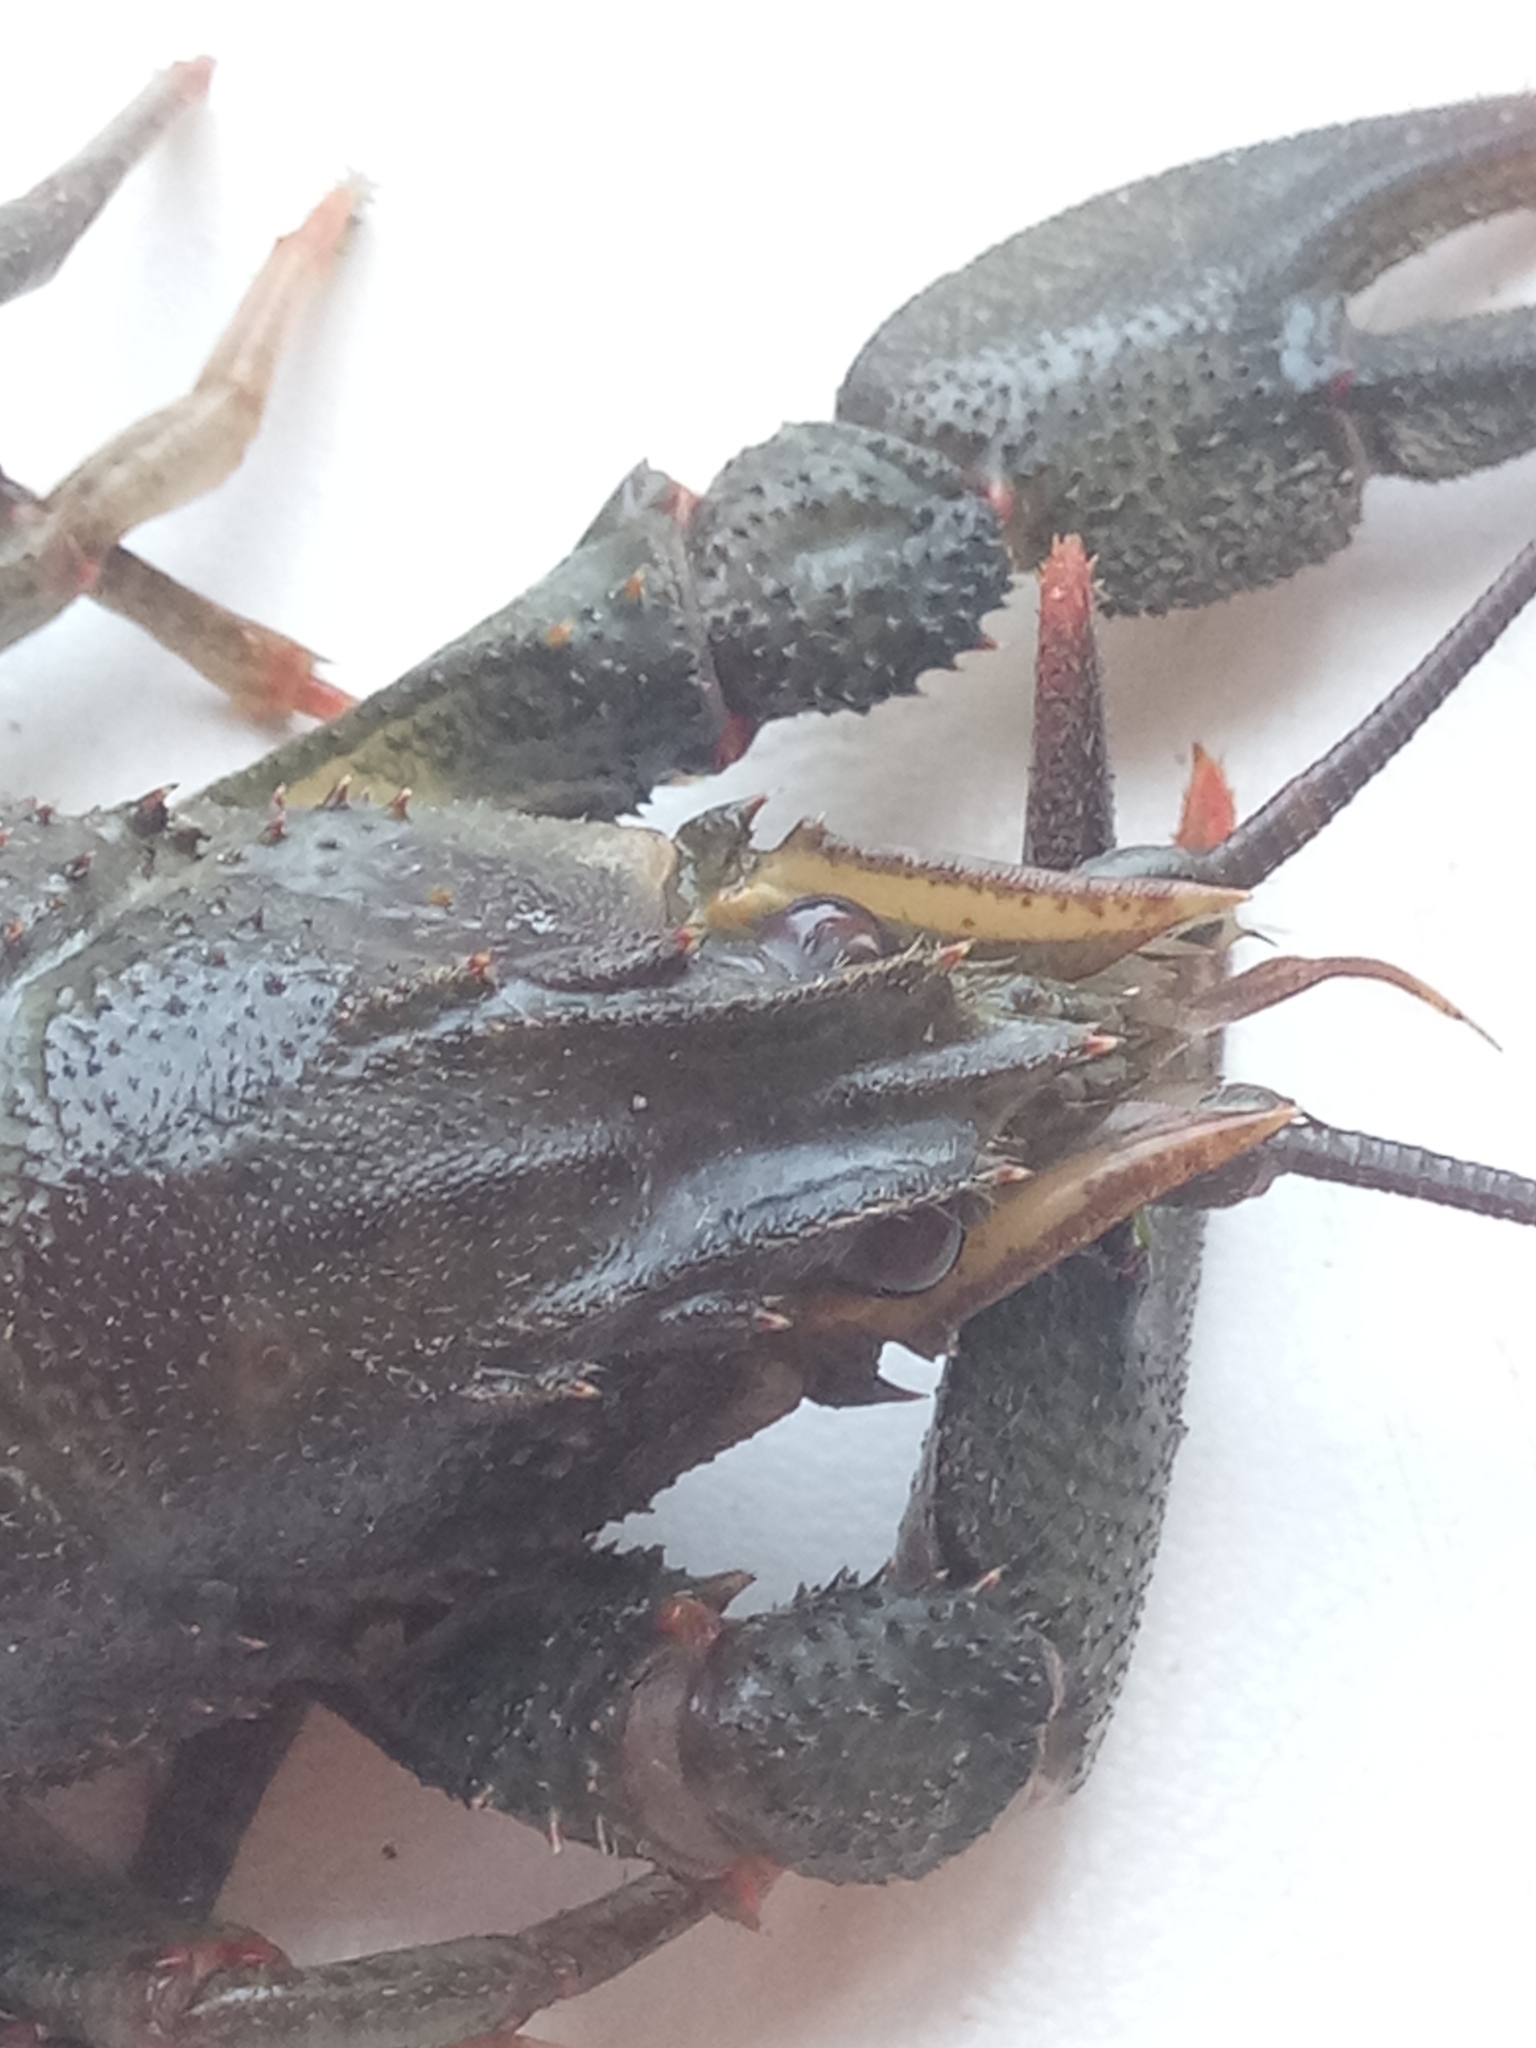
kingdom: Animalia
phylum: Arthropoda
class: Malacostraca
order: Decapoda
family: Astacidae
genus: Pontastacus
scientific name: Pontastacus leptodactylus
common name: Danube crayfish
